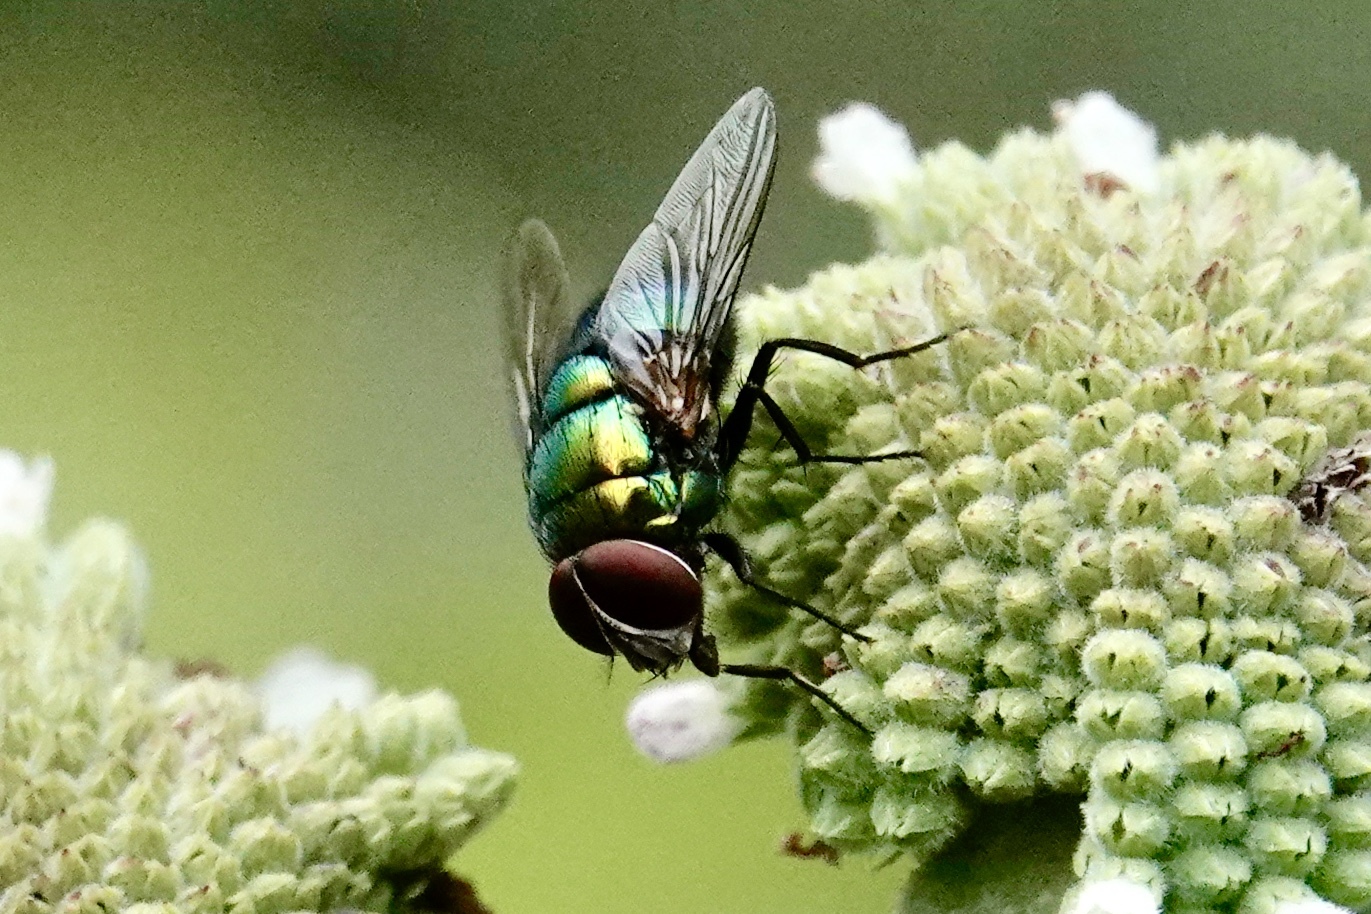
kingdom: Animalia
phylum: Arthropoda
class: Insecta
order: Diptera
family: Calliphoridae
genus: Lucilia
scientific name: Lucilia sericata
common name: Blow fly
